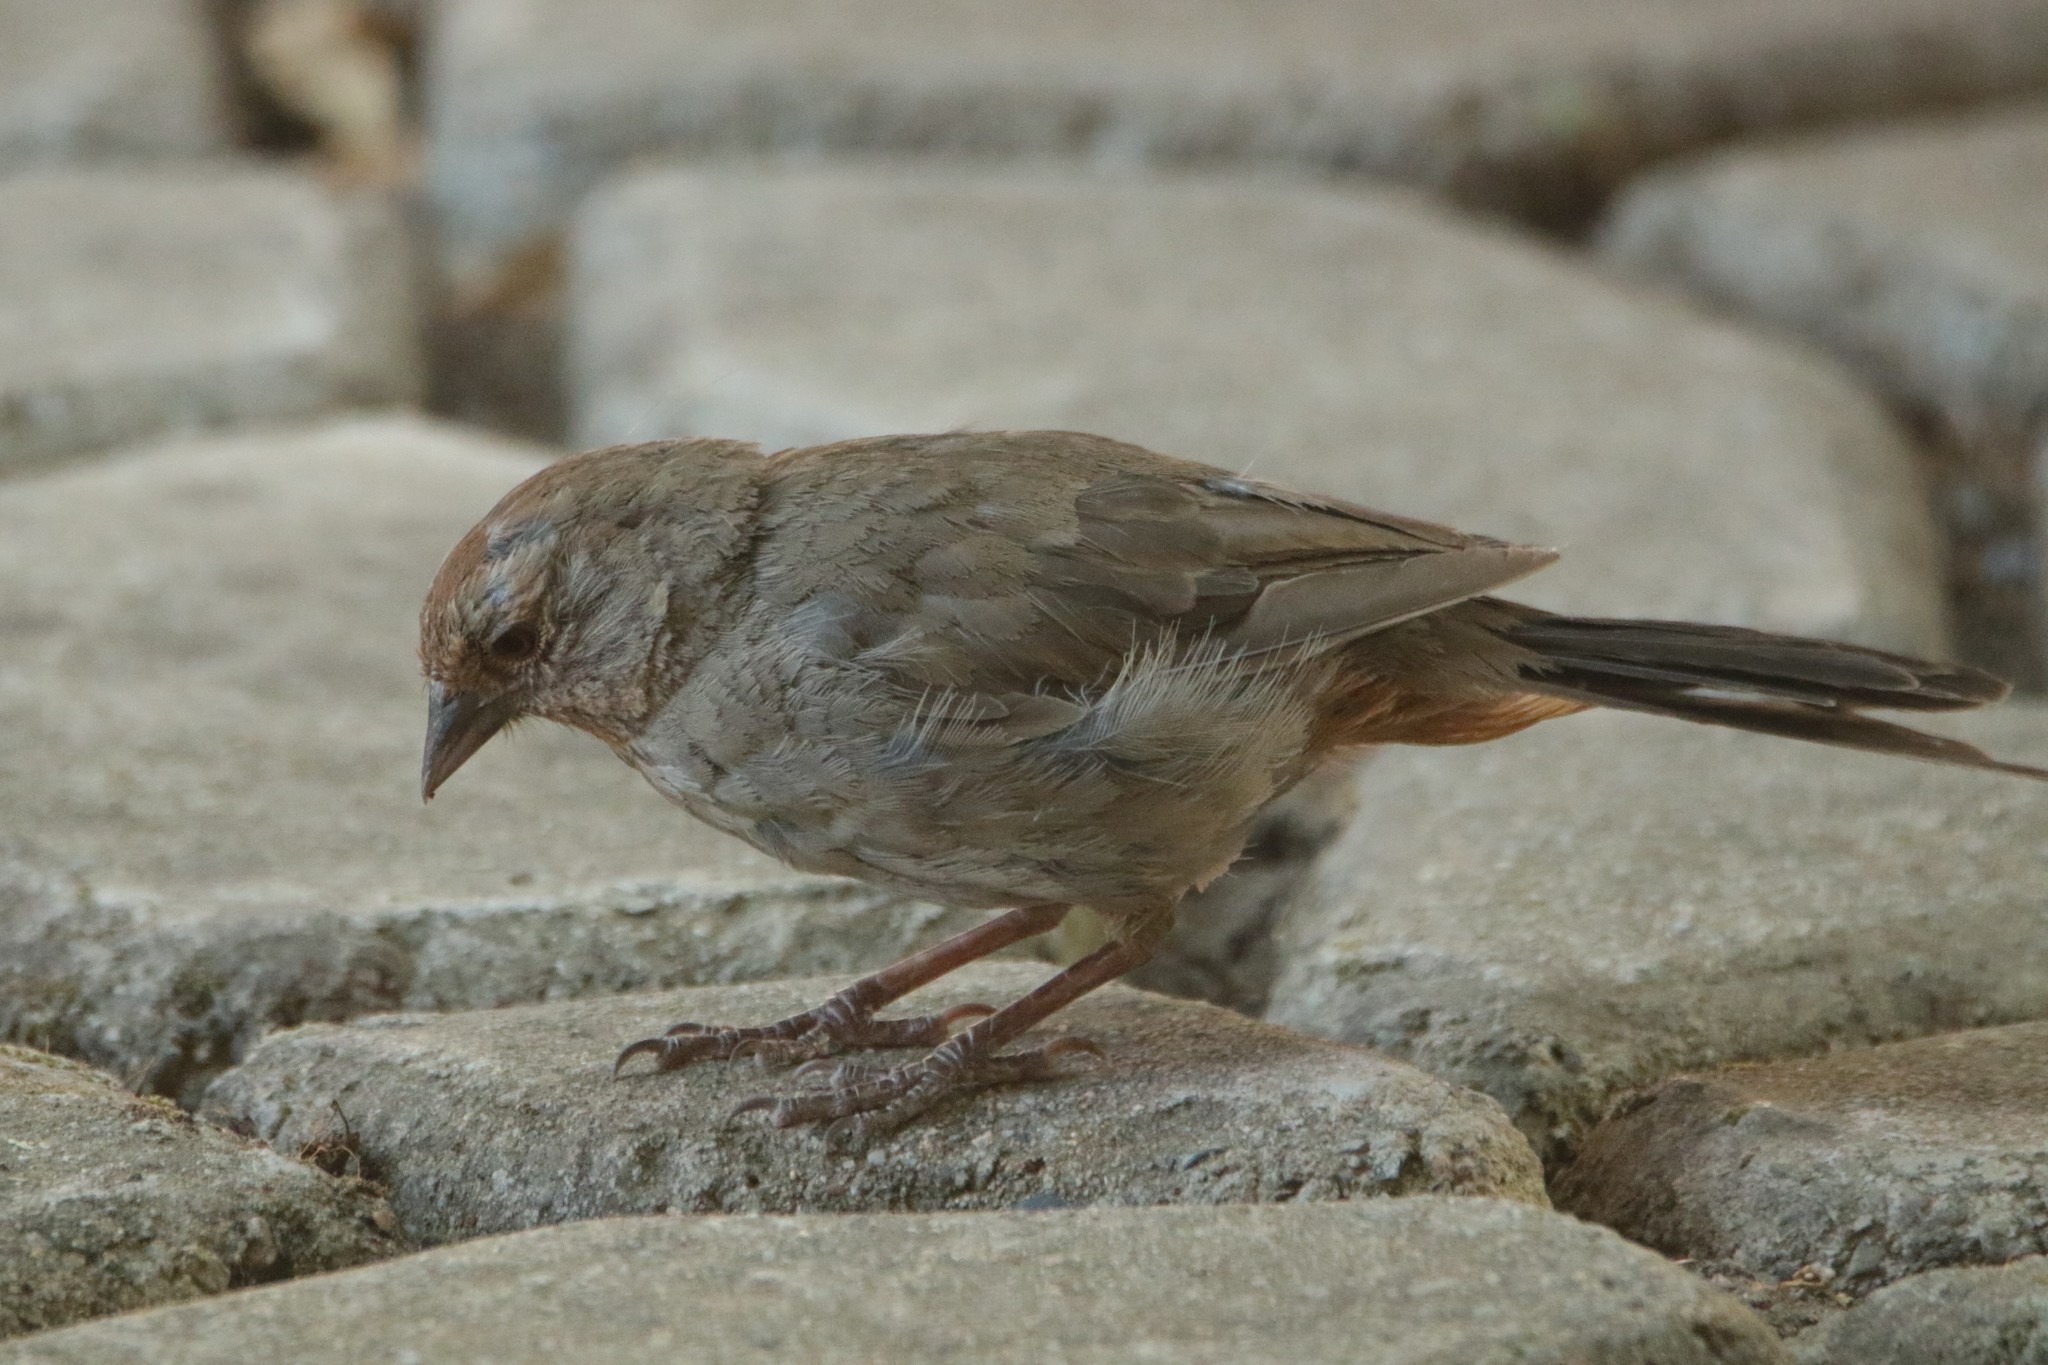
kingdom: Animalia
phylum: Chordata
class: Aves
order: Passeriformes
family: Passerellidae
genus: Melozone
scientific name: Melozone crissalis
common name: California towhee
